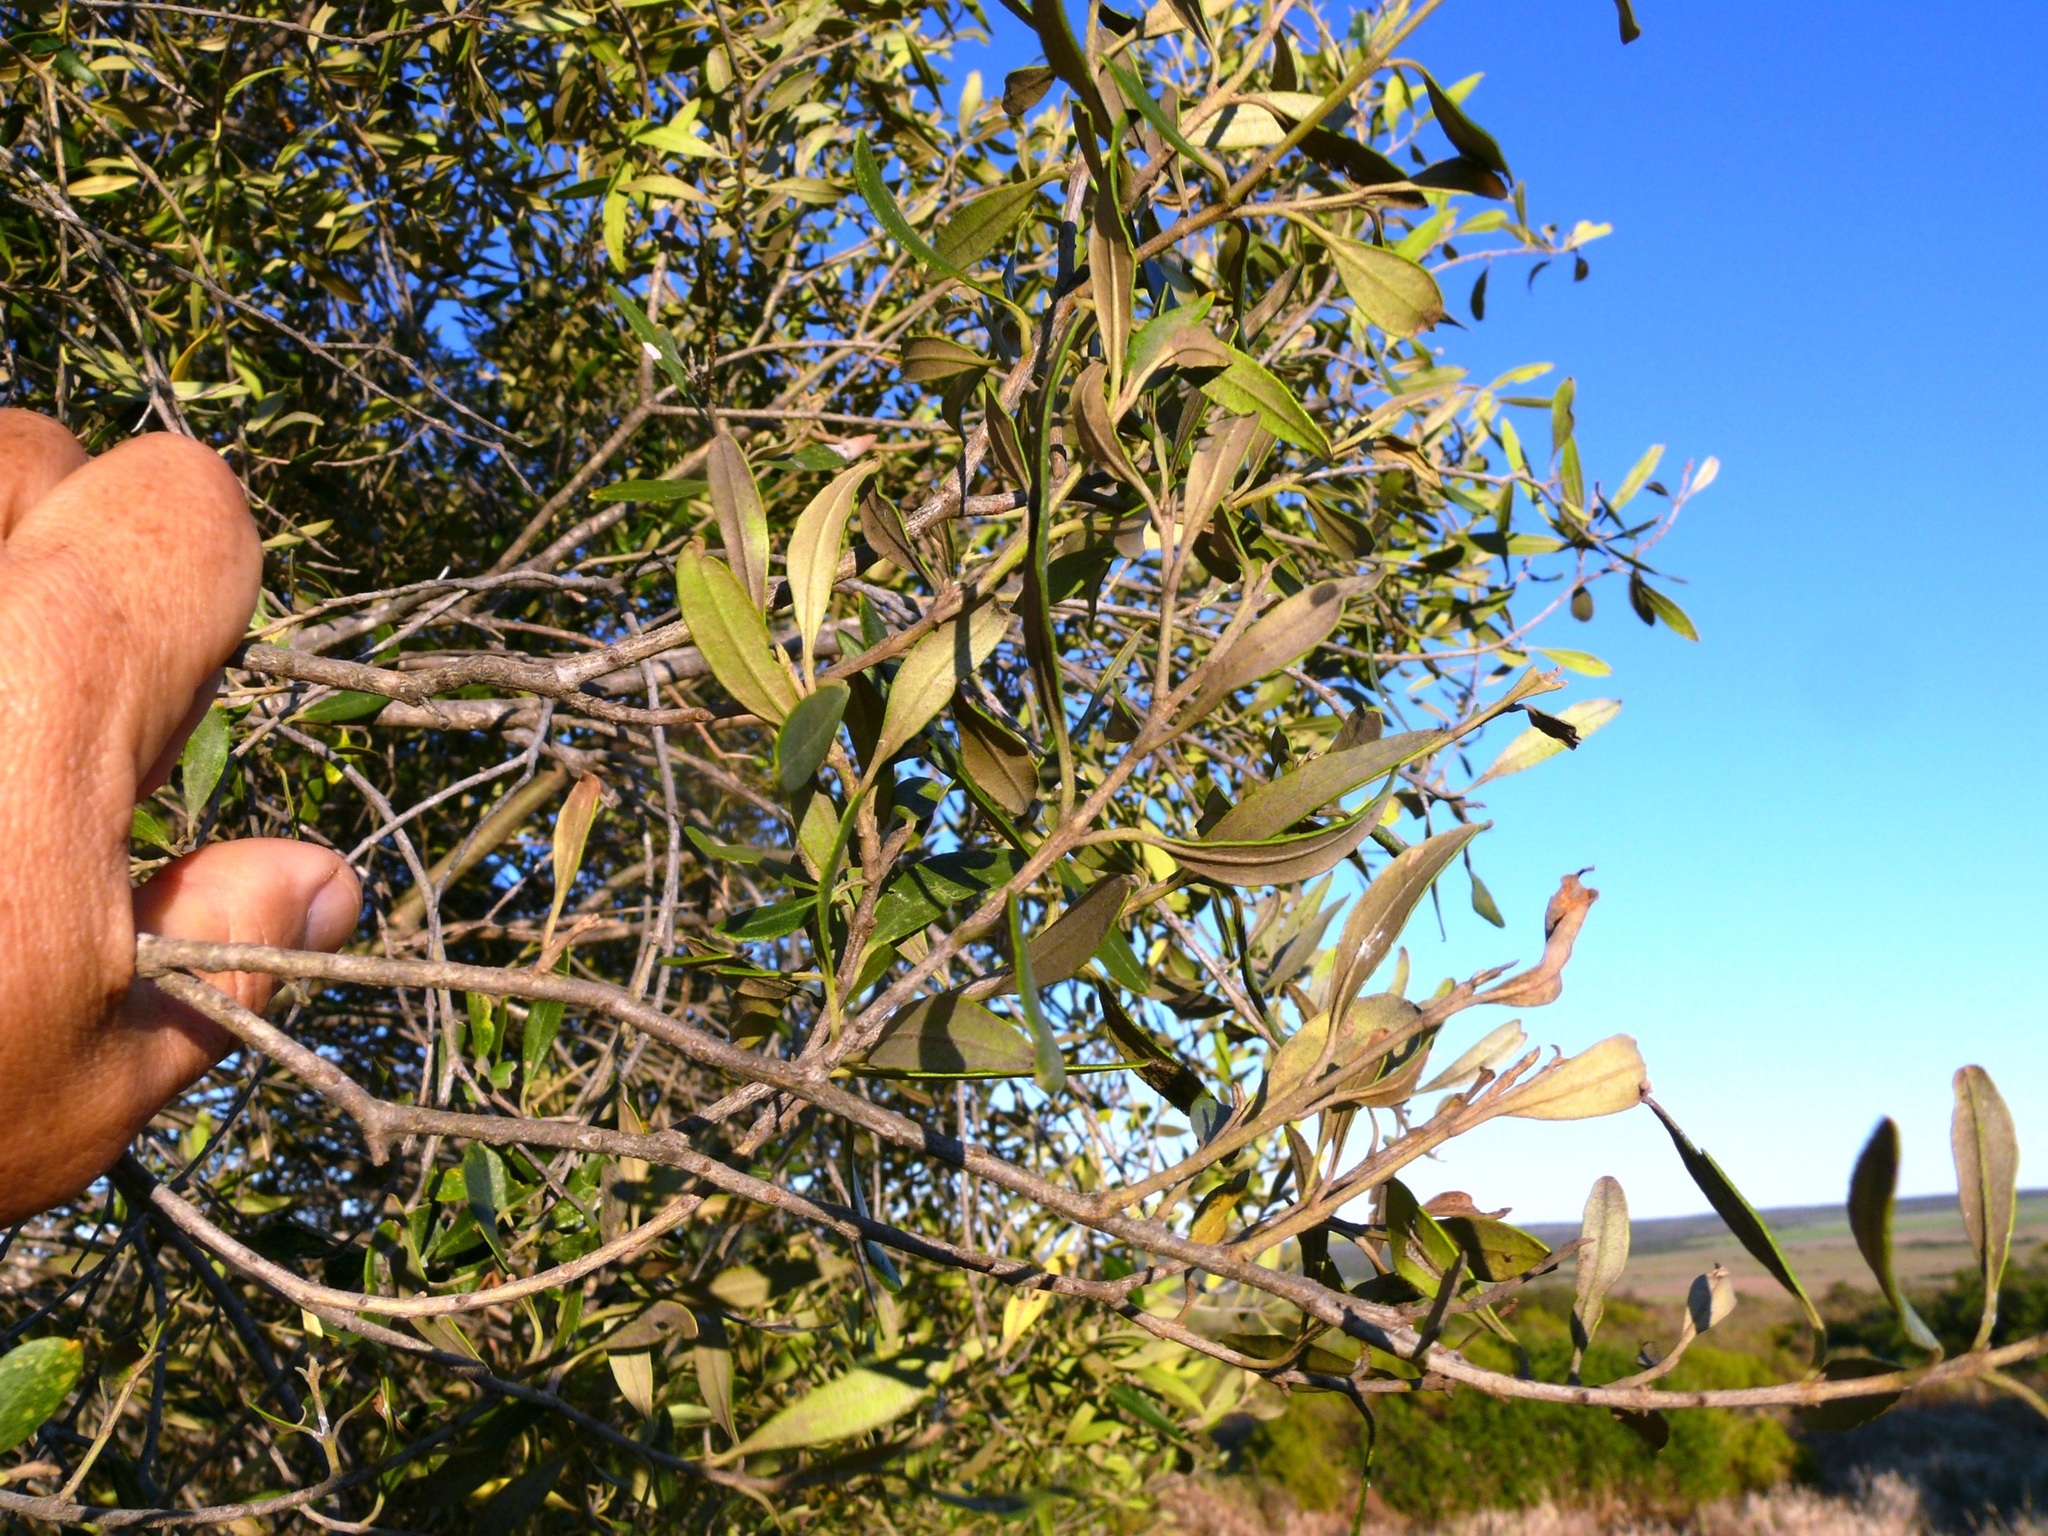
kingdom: Plantae
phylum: Tracheophyta
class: Magnoliopsida
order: Lamiales
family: Oleaceae
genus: Olea
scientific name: Olea europaea
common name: Olive
